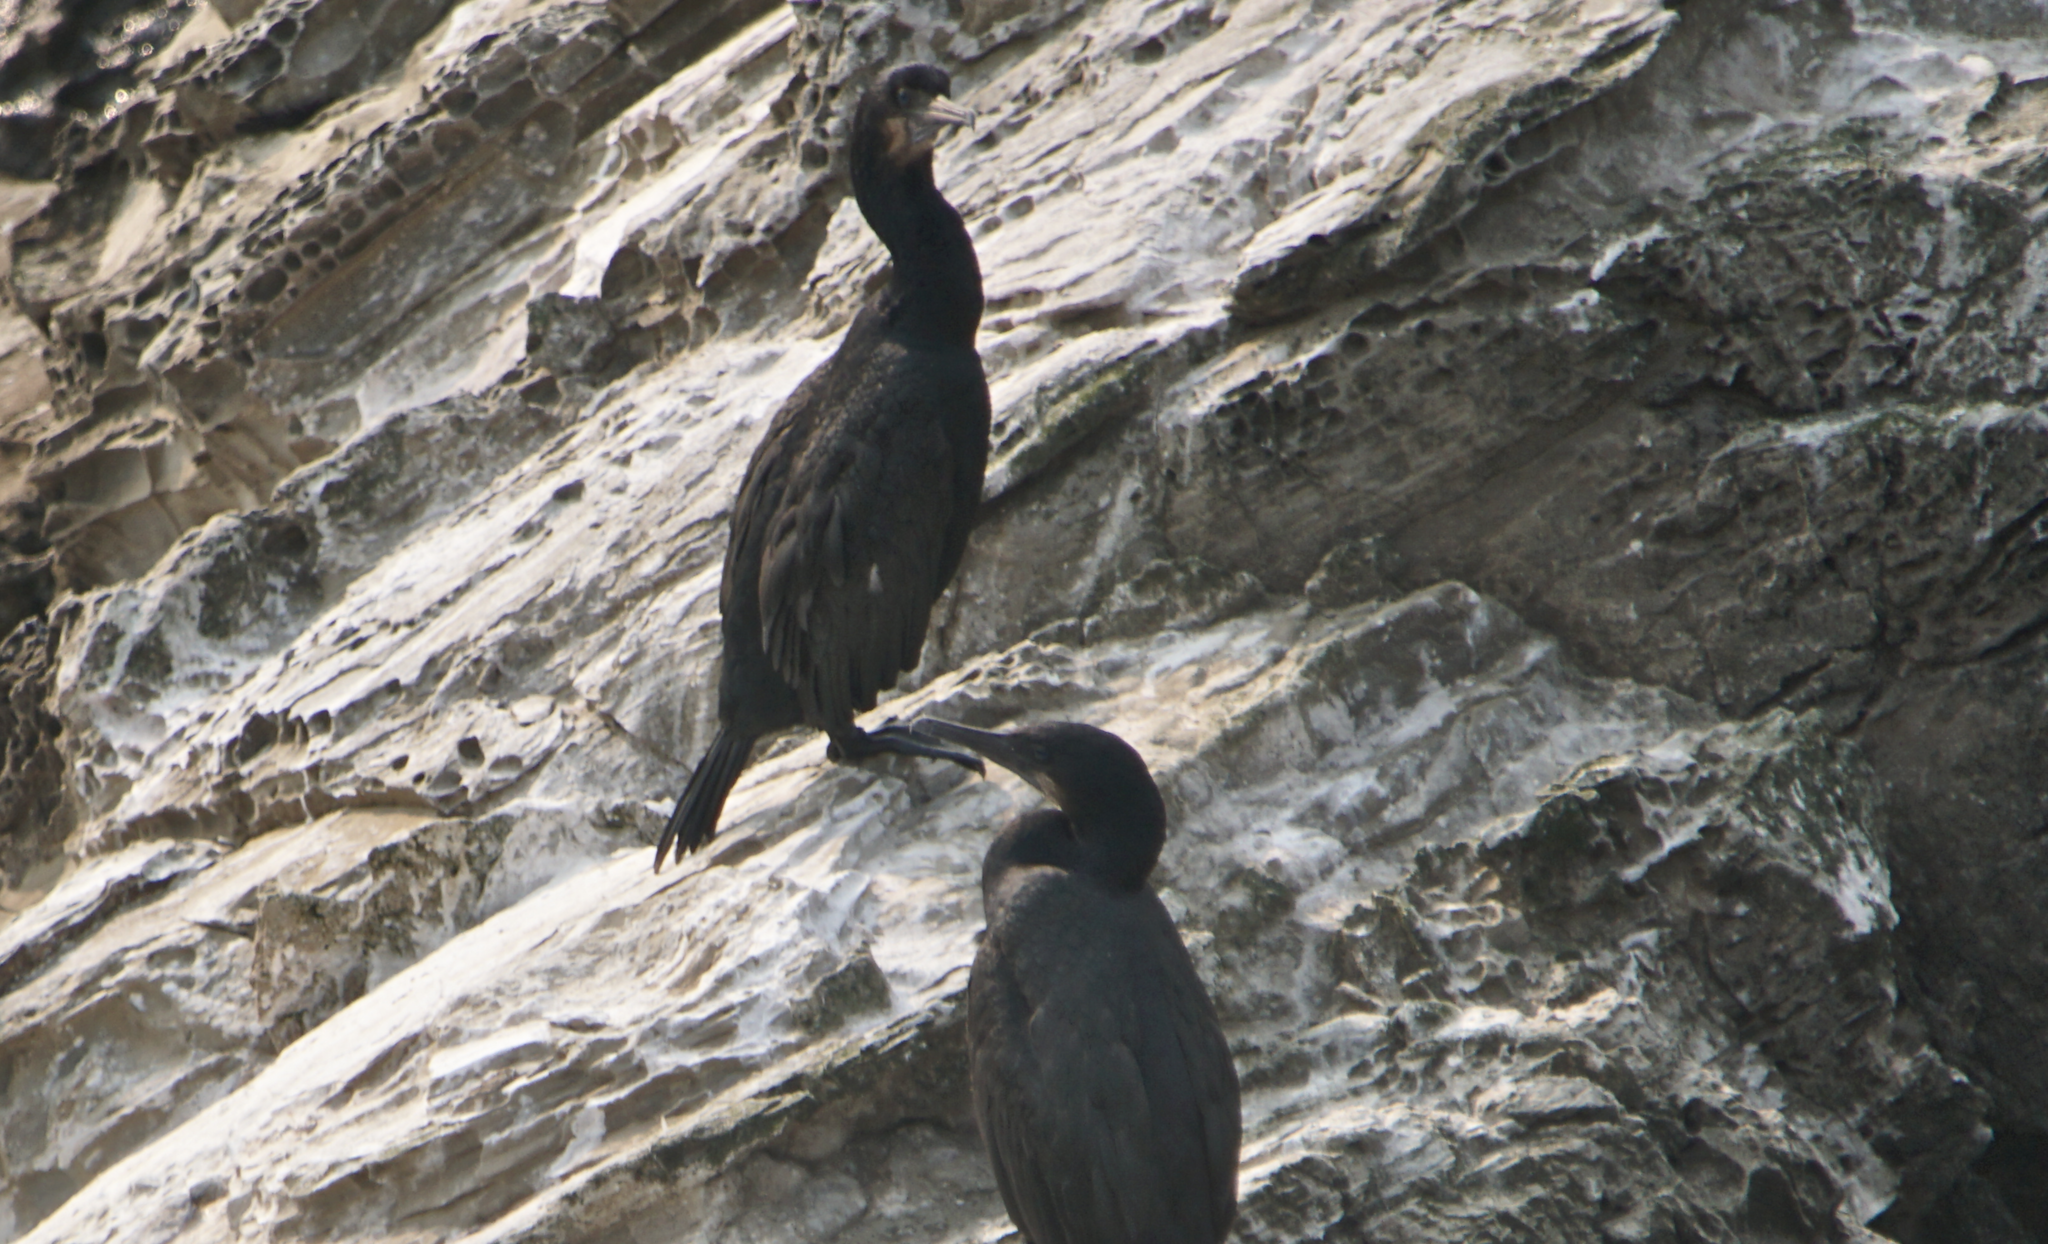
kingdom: Animalia
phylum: Chordata
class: Aves
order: Suliformes
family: Phalacrocoracidae
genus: Urile
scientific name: Urile penicillatus
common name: Brandt's cormorant
